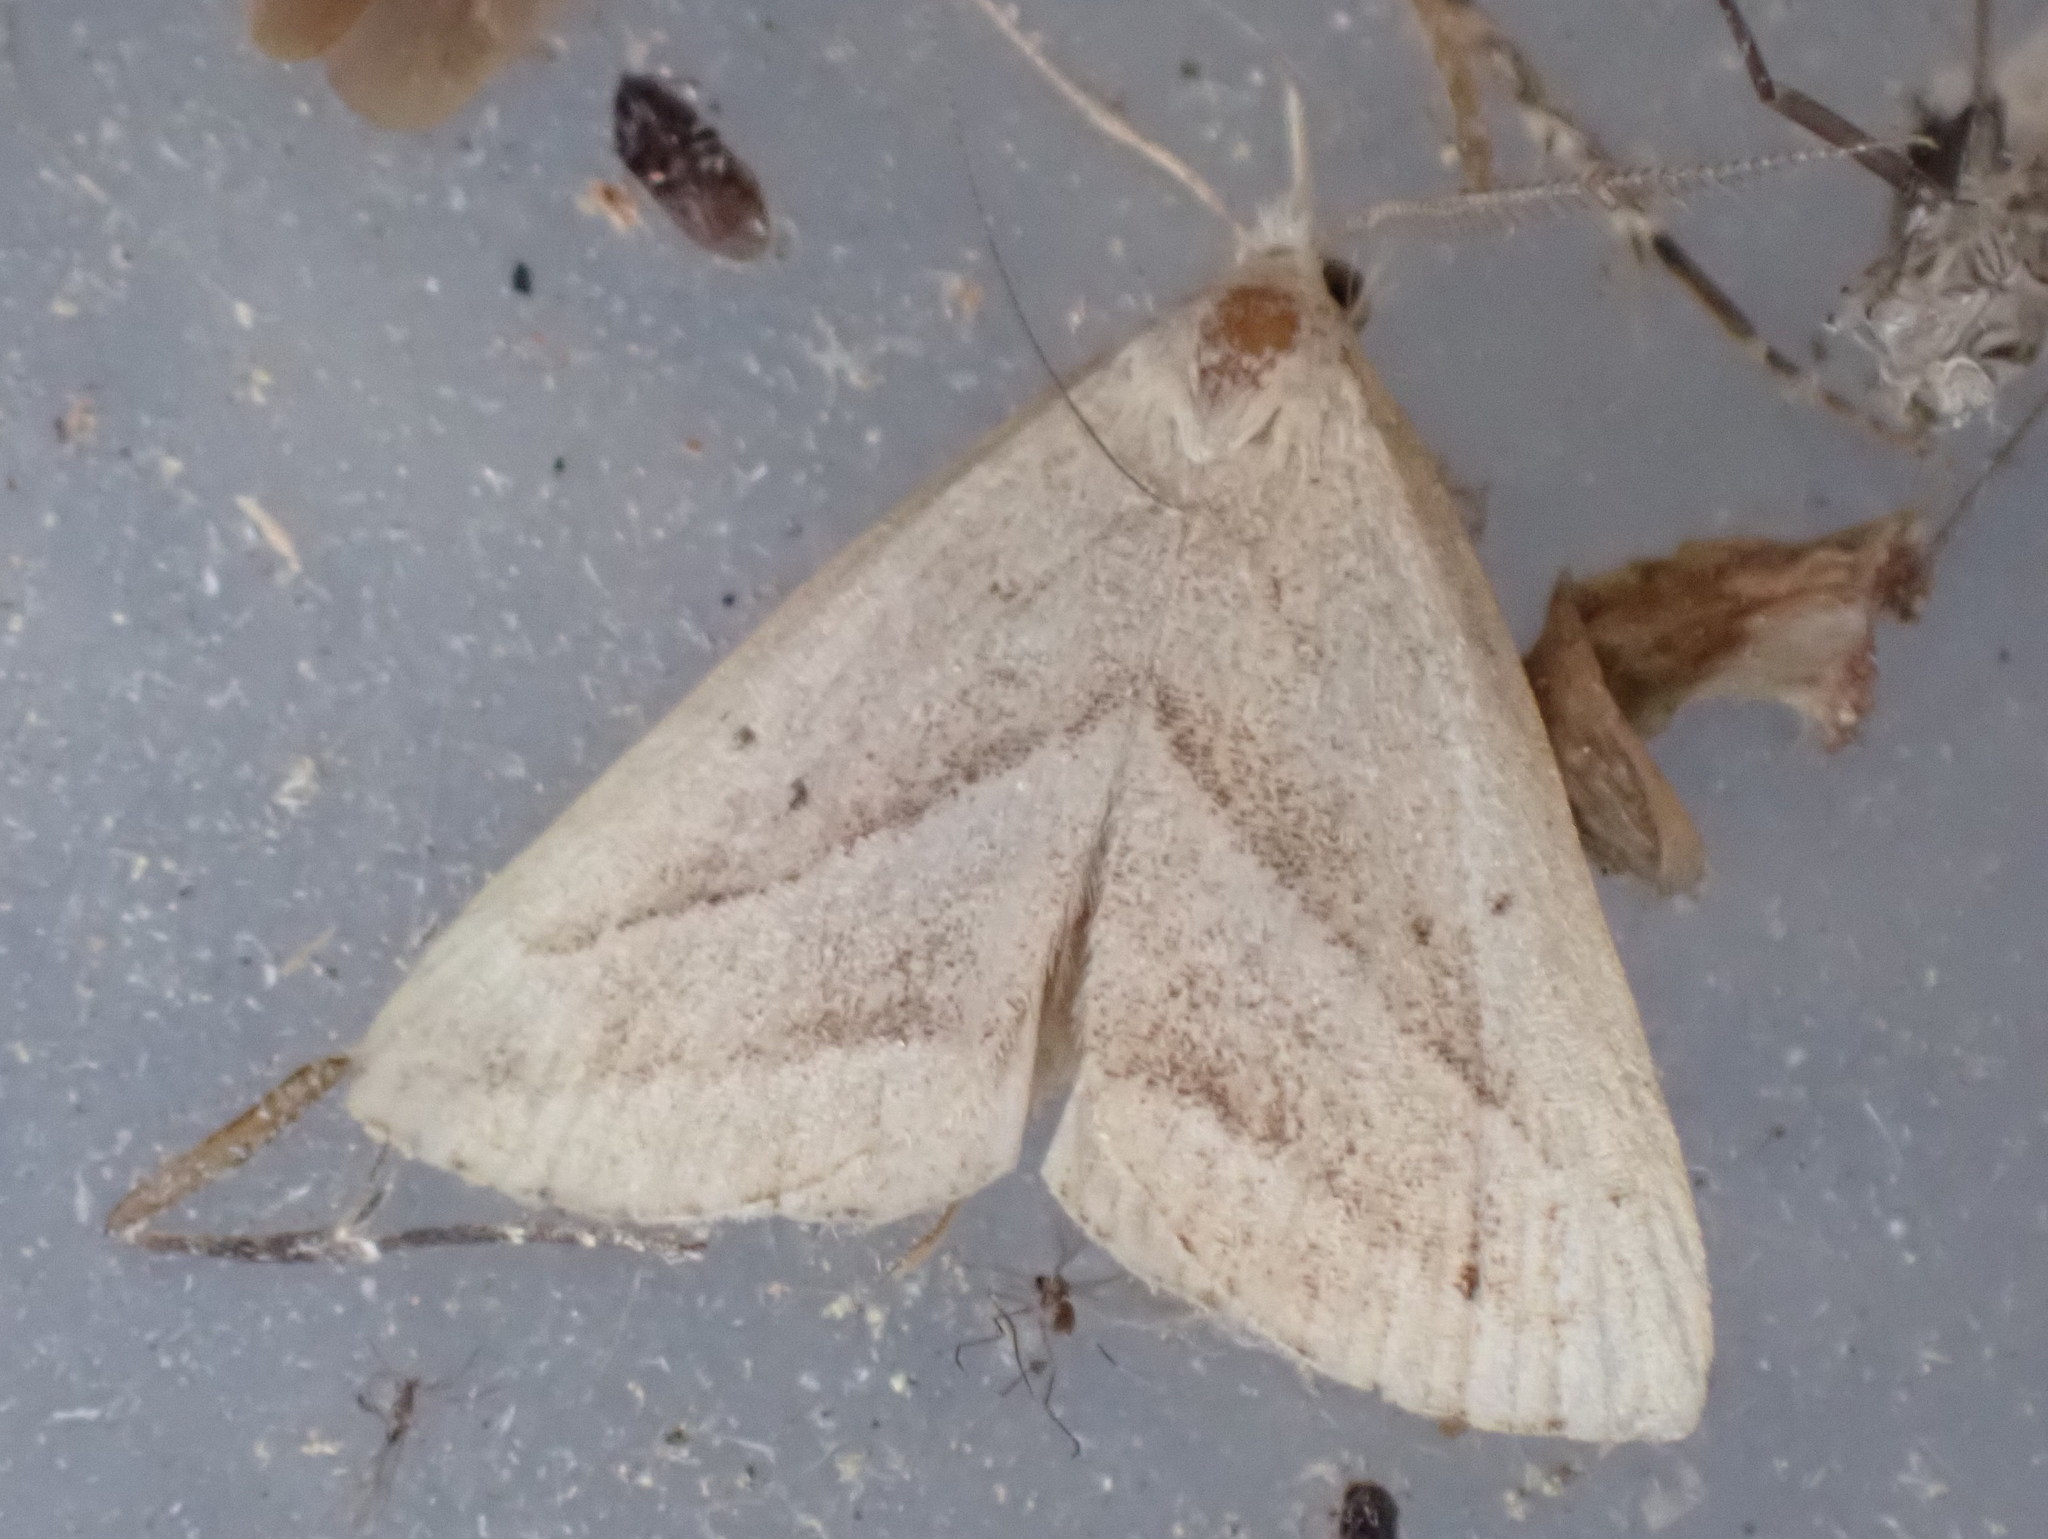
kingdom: Animalia
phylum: Arthropoda
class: Insecta
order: Lepidoptera
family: Erebidae
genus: Macrochilo
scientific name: Macrochilo absorptalis
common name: Slant-lined owlet
